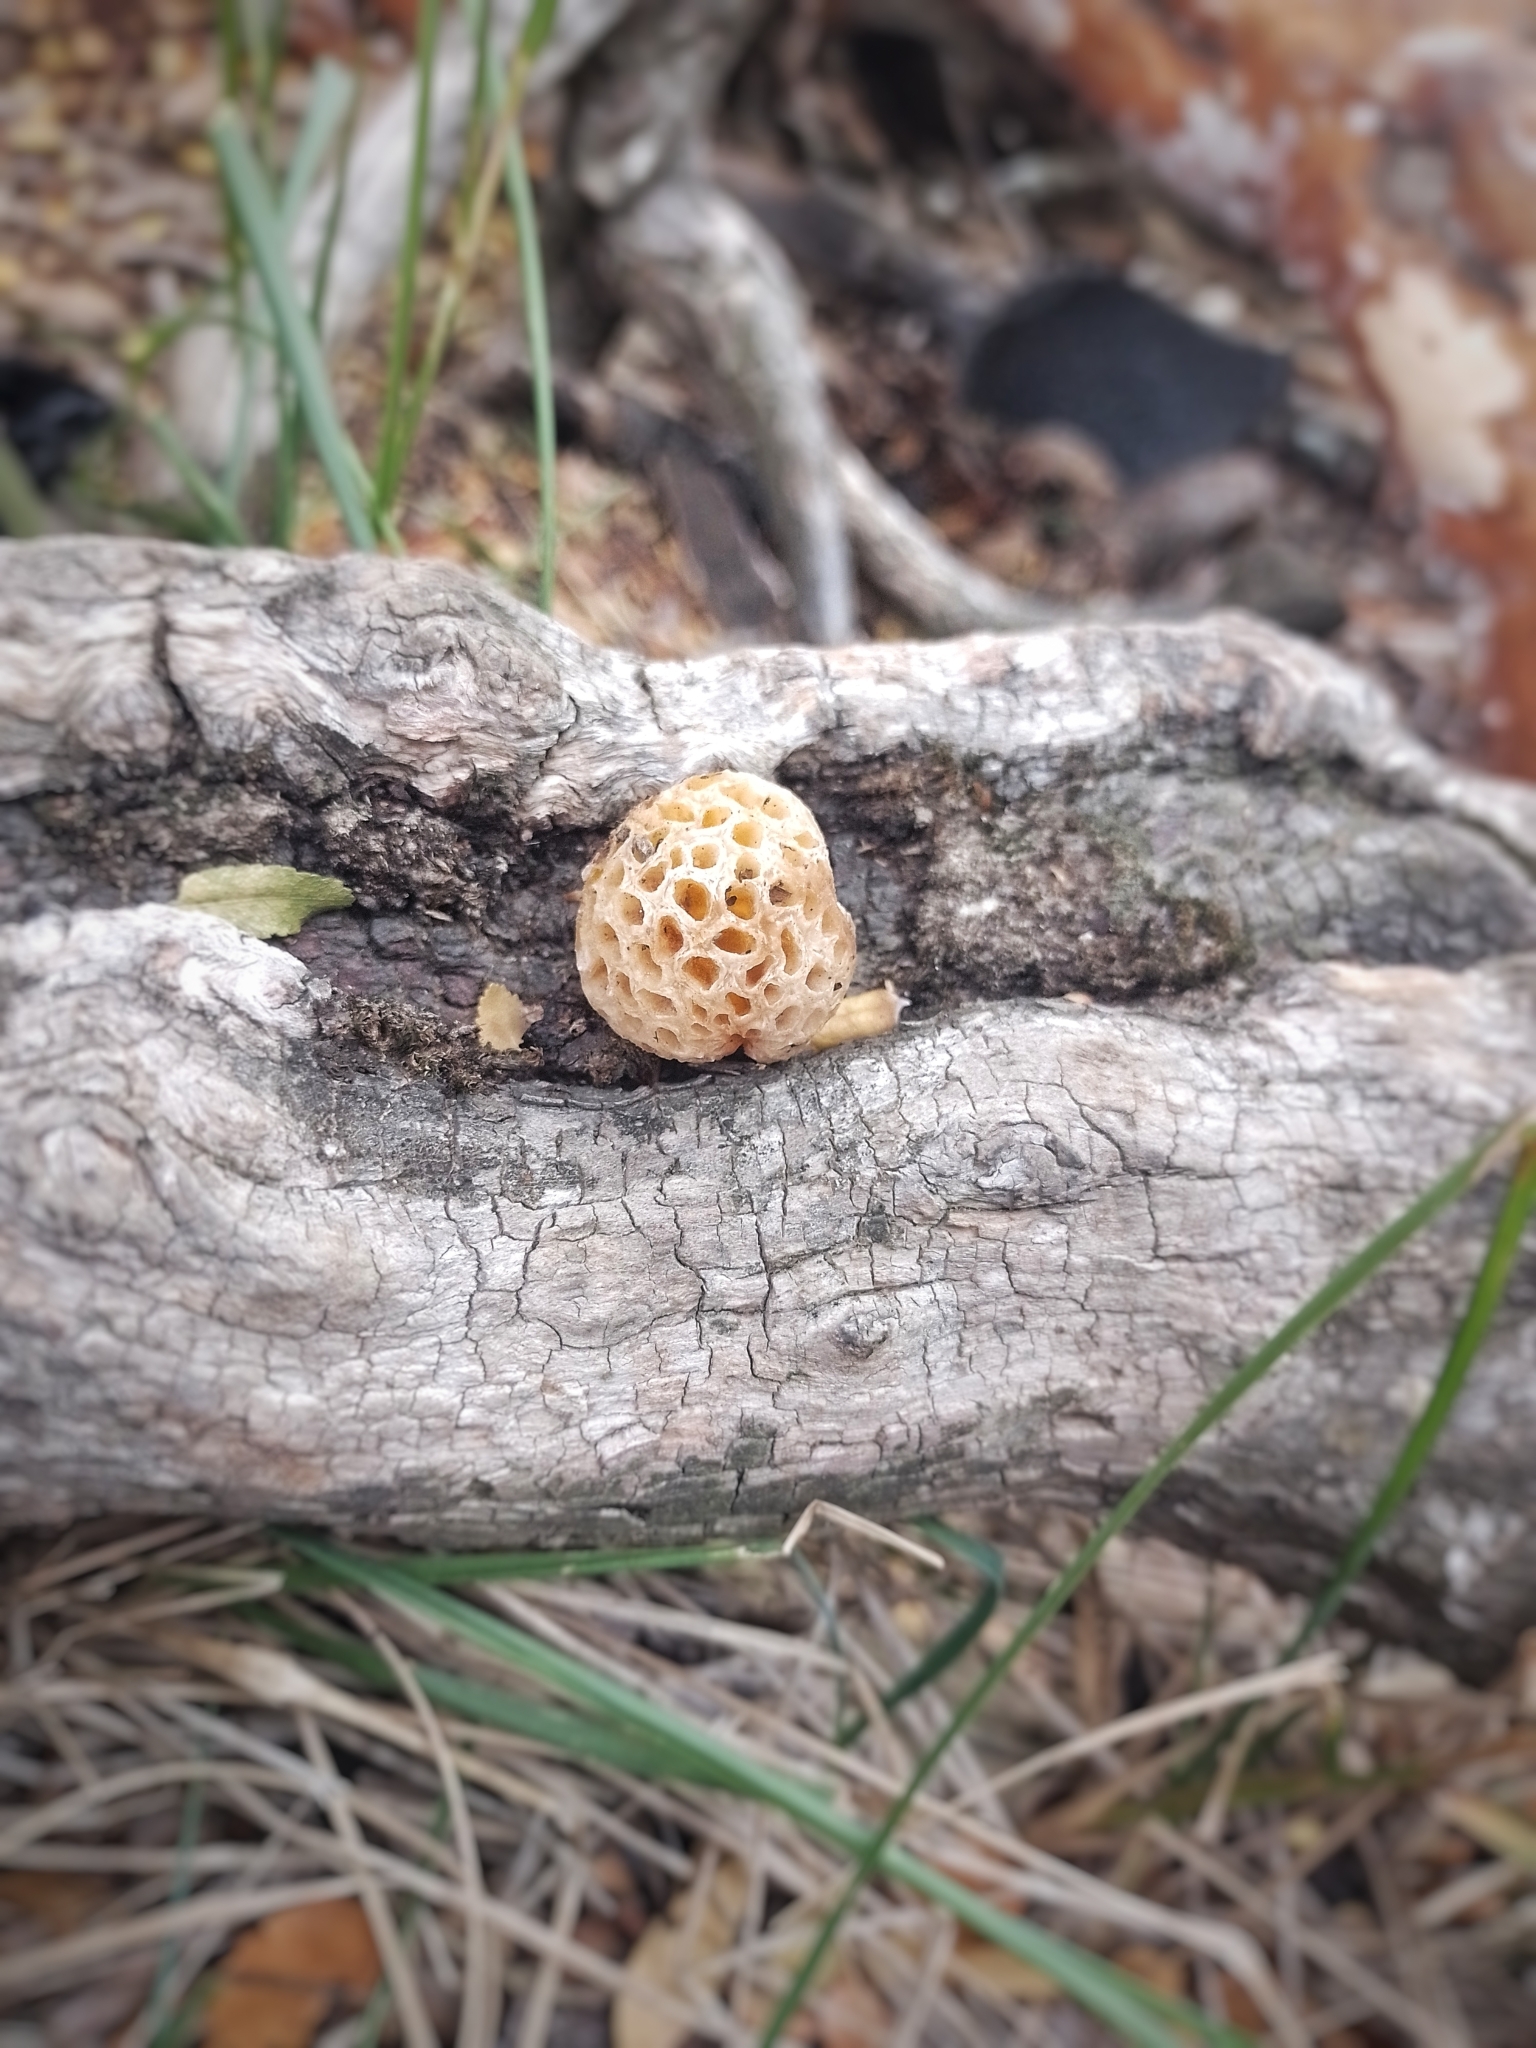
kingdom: Fungi
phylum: Ascomycota
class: Leotiomycetes
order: Cyttariales
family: Cyttariaceae
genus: Cyttaria
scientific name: Cyttaria hariotii
